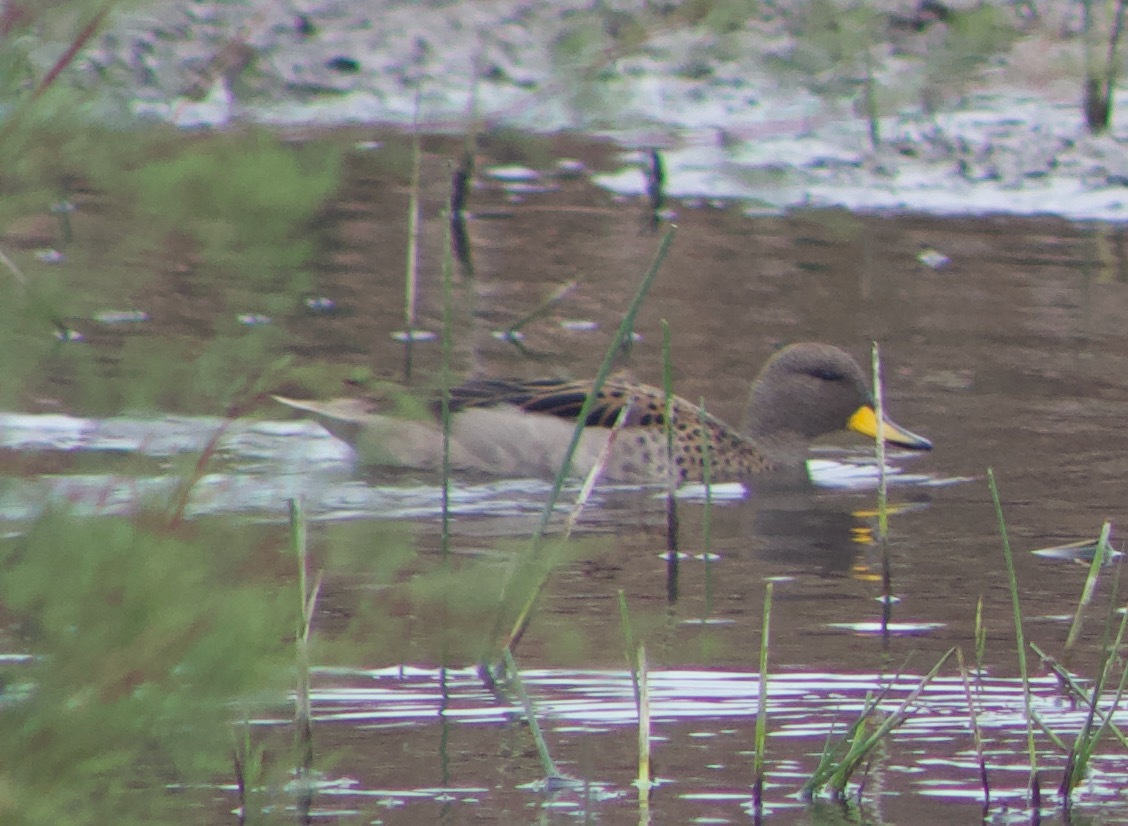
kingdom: Animalia
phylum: Chordata
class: Aves
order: Anseriformes
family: Anatidae
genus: Anas
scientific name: Anas flavirostris
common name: Yellow-billed teal
